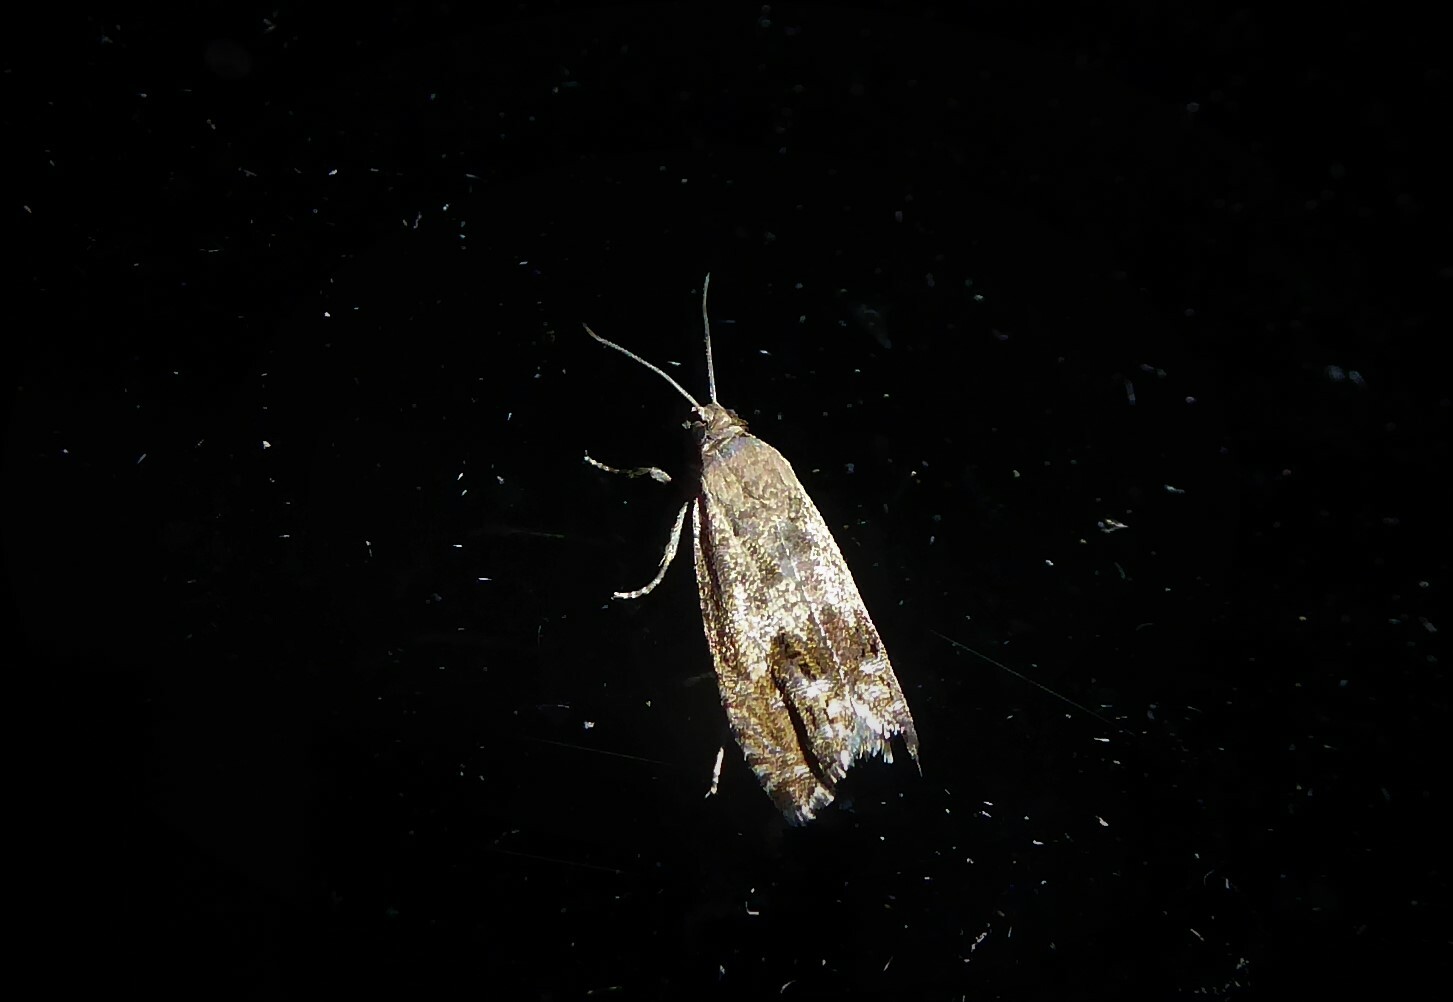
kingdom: Animalia
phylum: Arthropoda
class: Insecta
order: Lepidoptera
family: Tortricidae
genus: Cydia
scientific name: Cydia succedana
